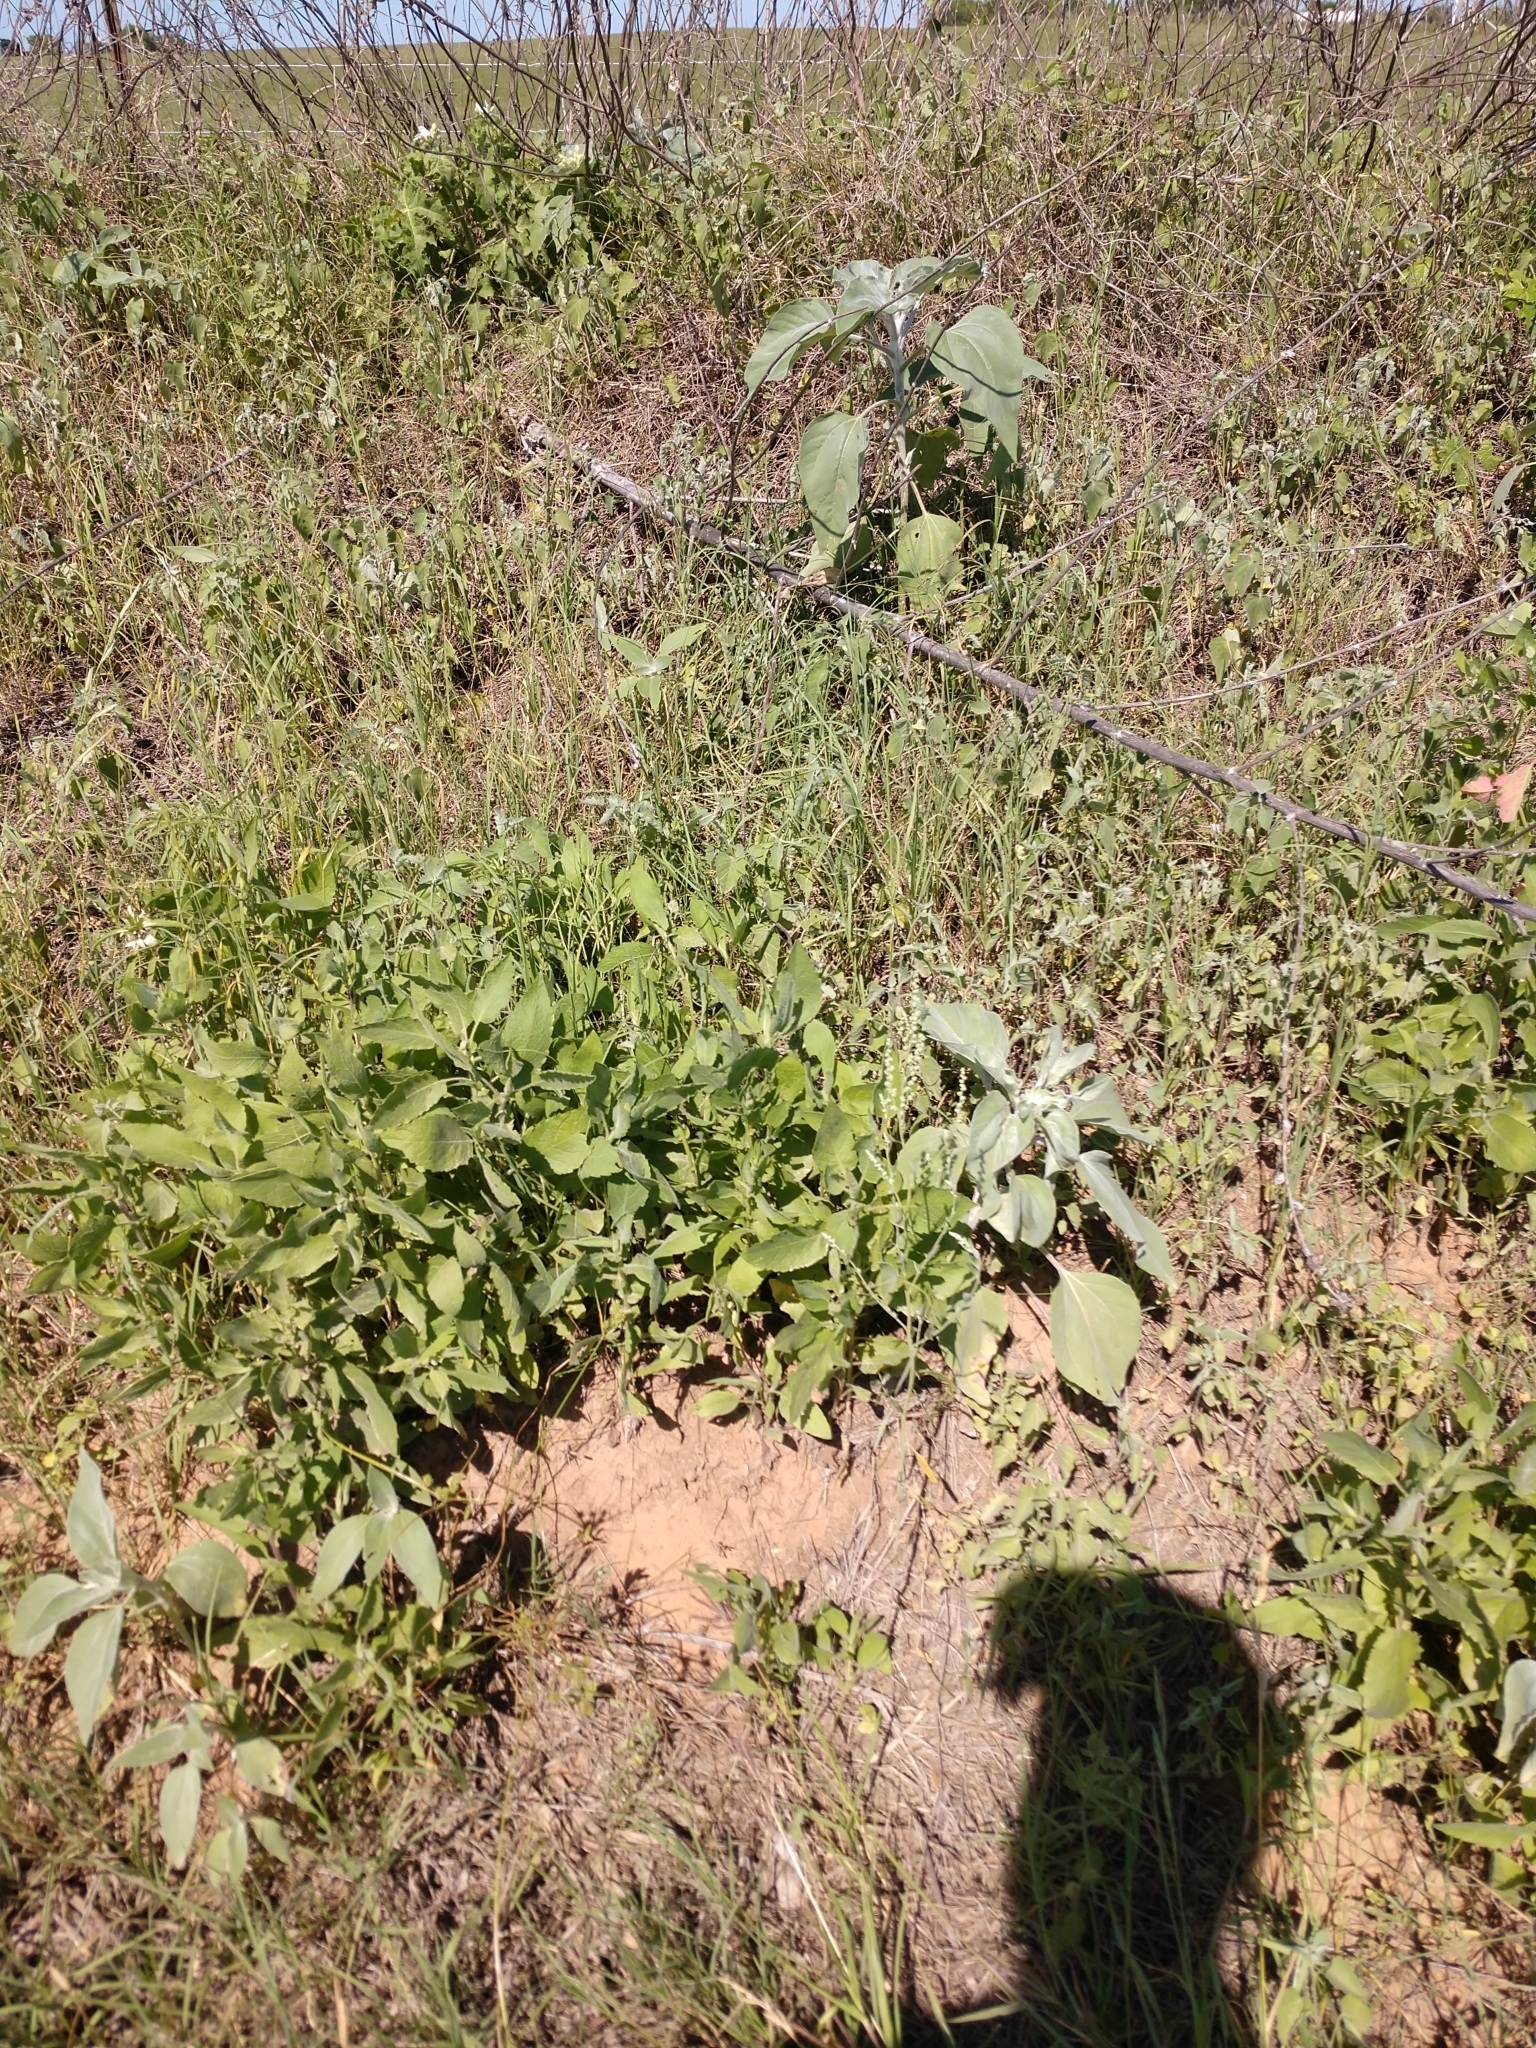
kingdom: Plantae
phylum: Tracheophyta
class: Magnoliopsida
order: Asterales
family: Asteraceae
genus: Helianthus
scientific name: Helianthus argophyllus
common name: Silverleaf sunflower
